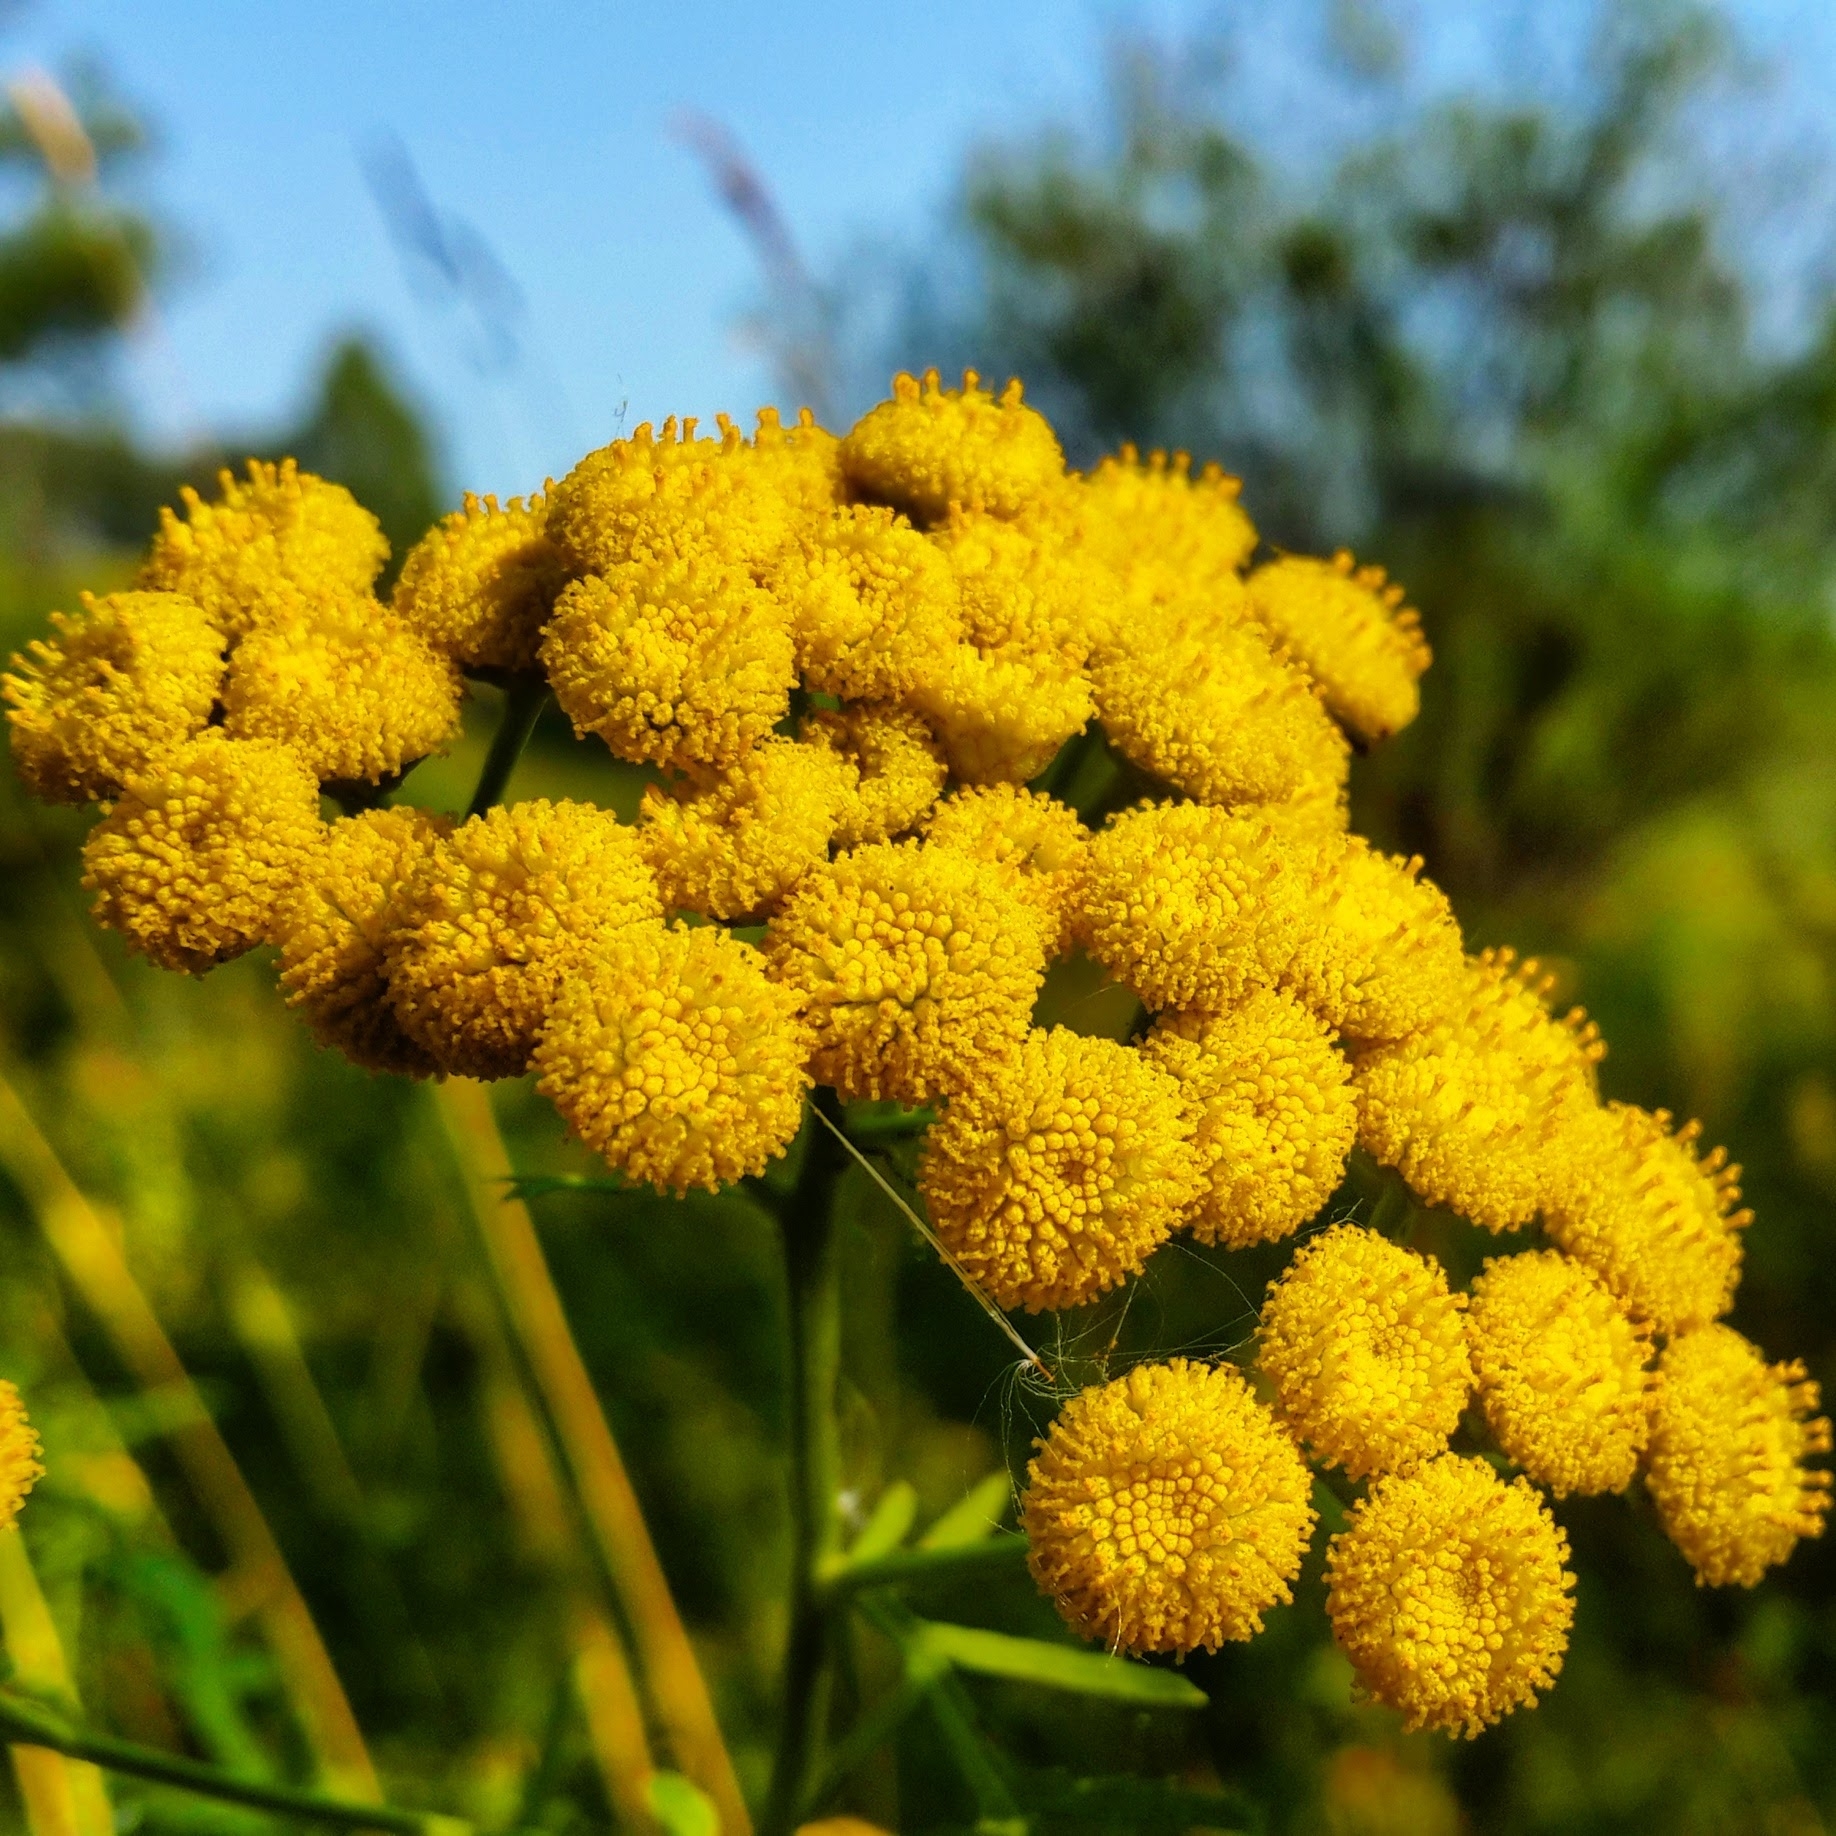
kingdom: Plantae
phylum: Tracheophyta
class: Magnoliopsida
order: Asterales
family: Asteraceae
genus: Tanacetum
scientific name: Tanacetum vulgare
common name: Common tansy
